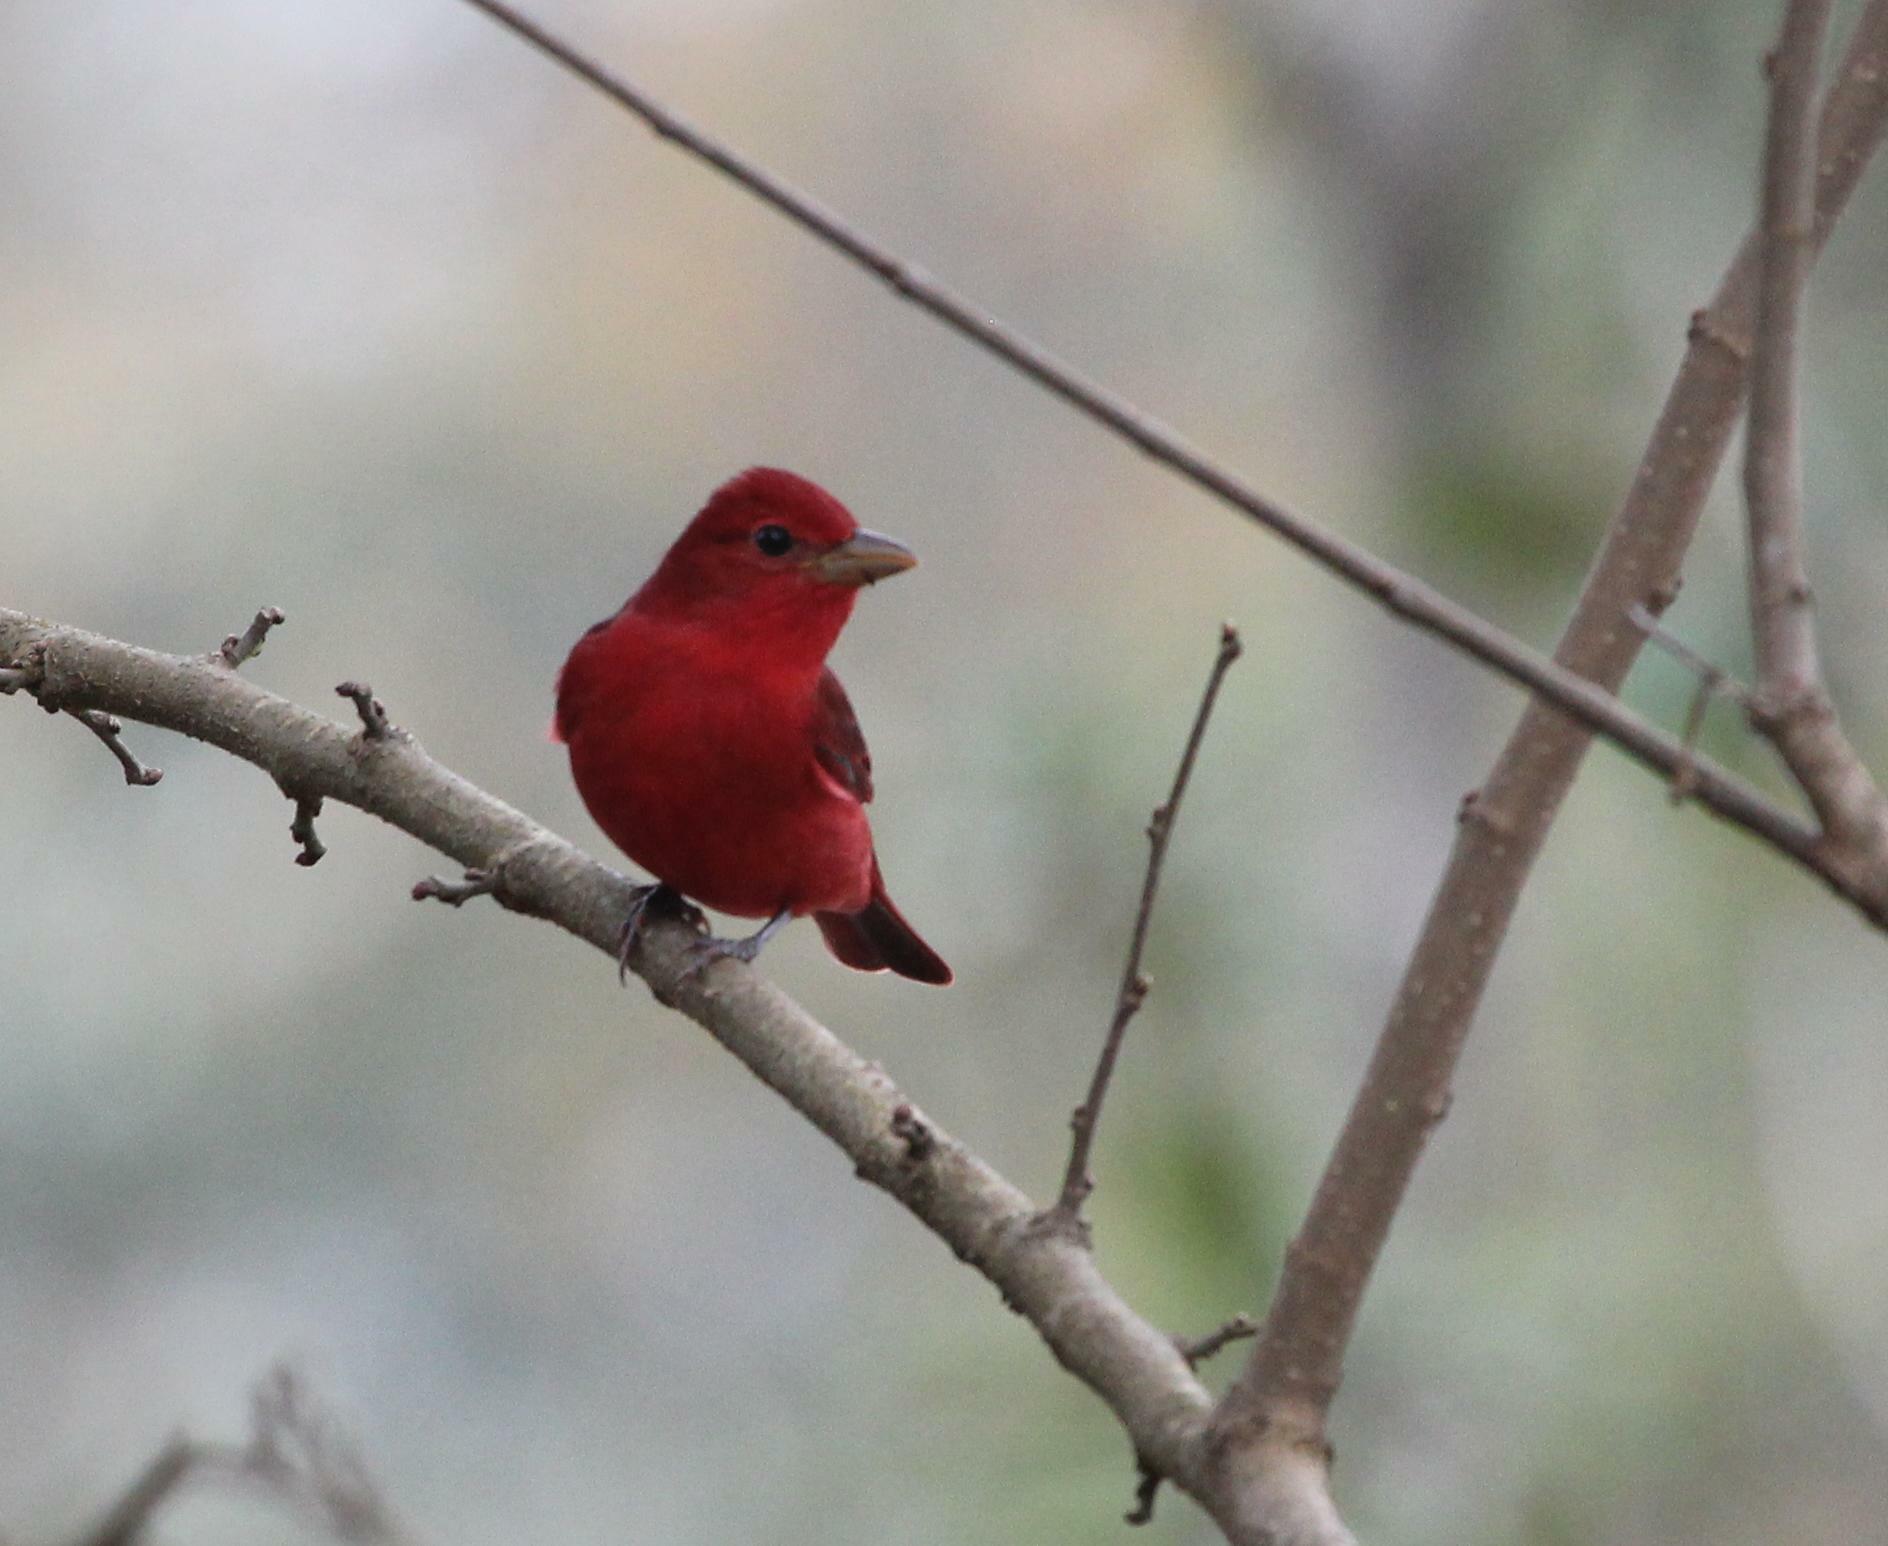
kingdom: Animalia
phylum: Chordata
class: Aves
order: Passeriformes
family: Cardinalidae
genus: Piranga
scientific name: Piranga rubra
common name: Summer tanager
